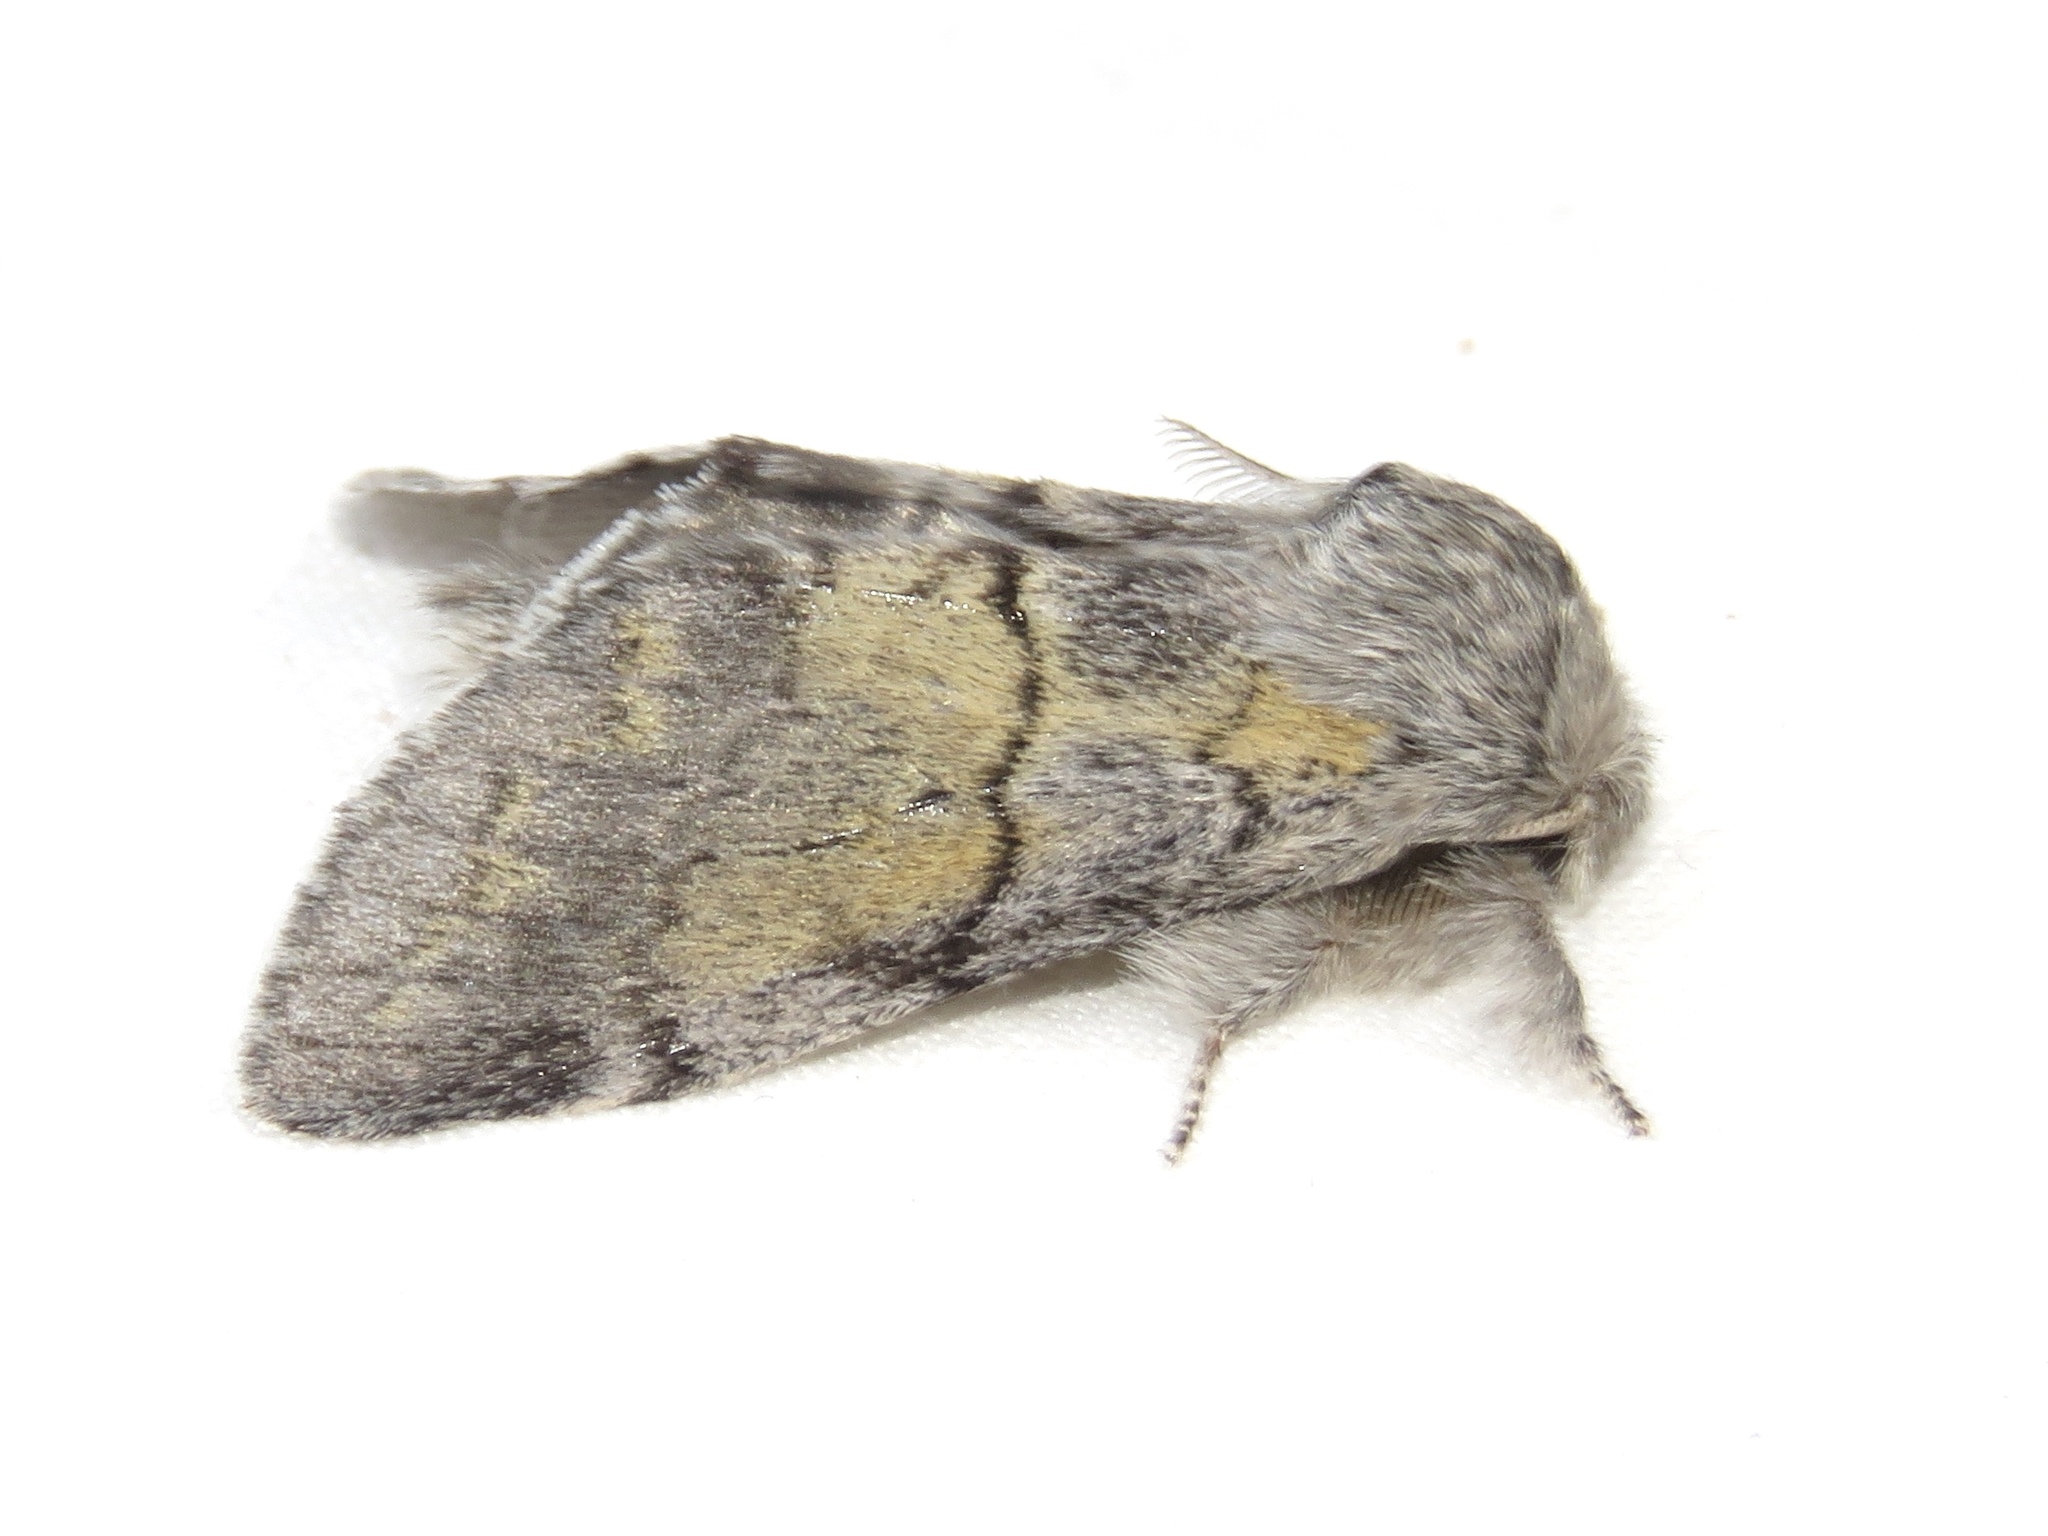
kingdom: Animalia
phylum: Arthropoda
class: Insecta
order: Lepidoptera
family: Notodontidae
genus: Gluphisia
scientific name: Gluphisia lintneri
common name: Lintner's gluphisia moth
